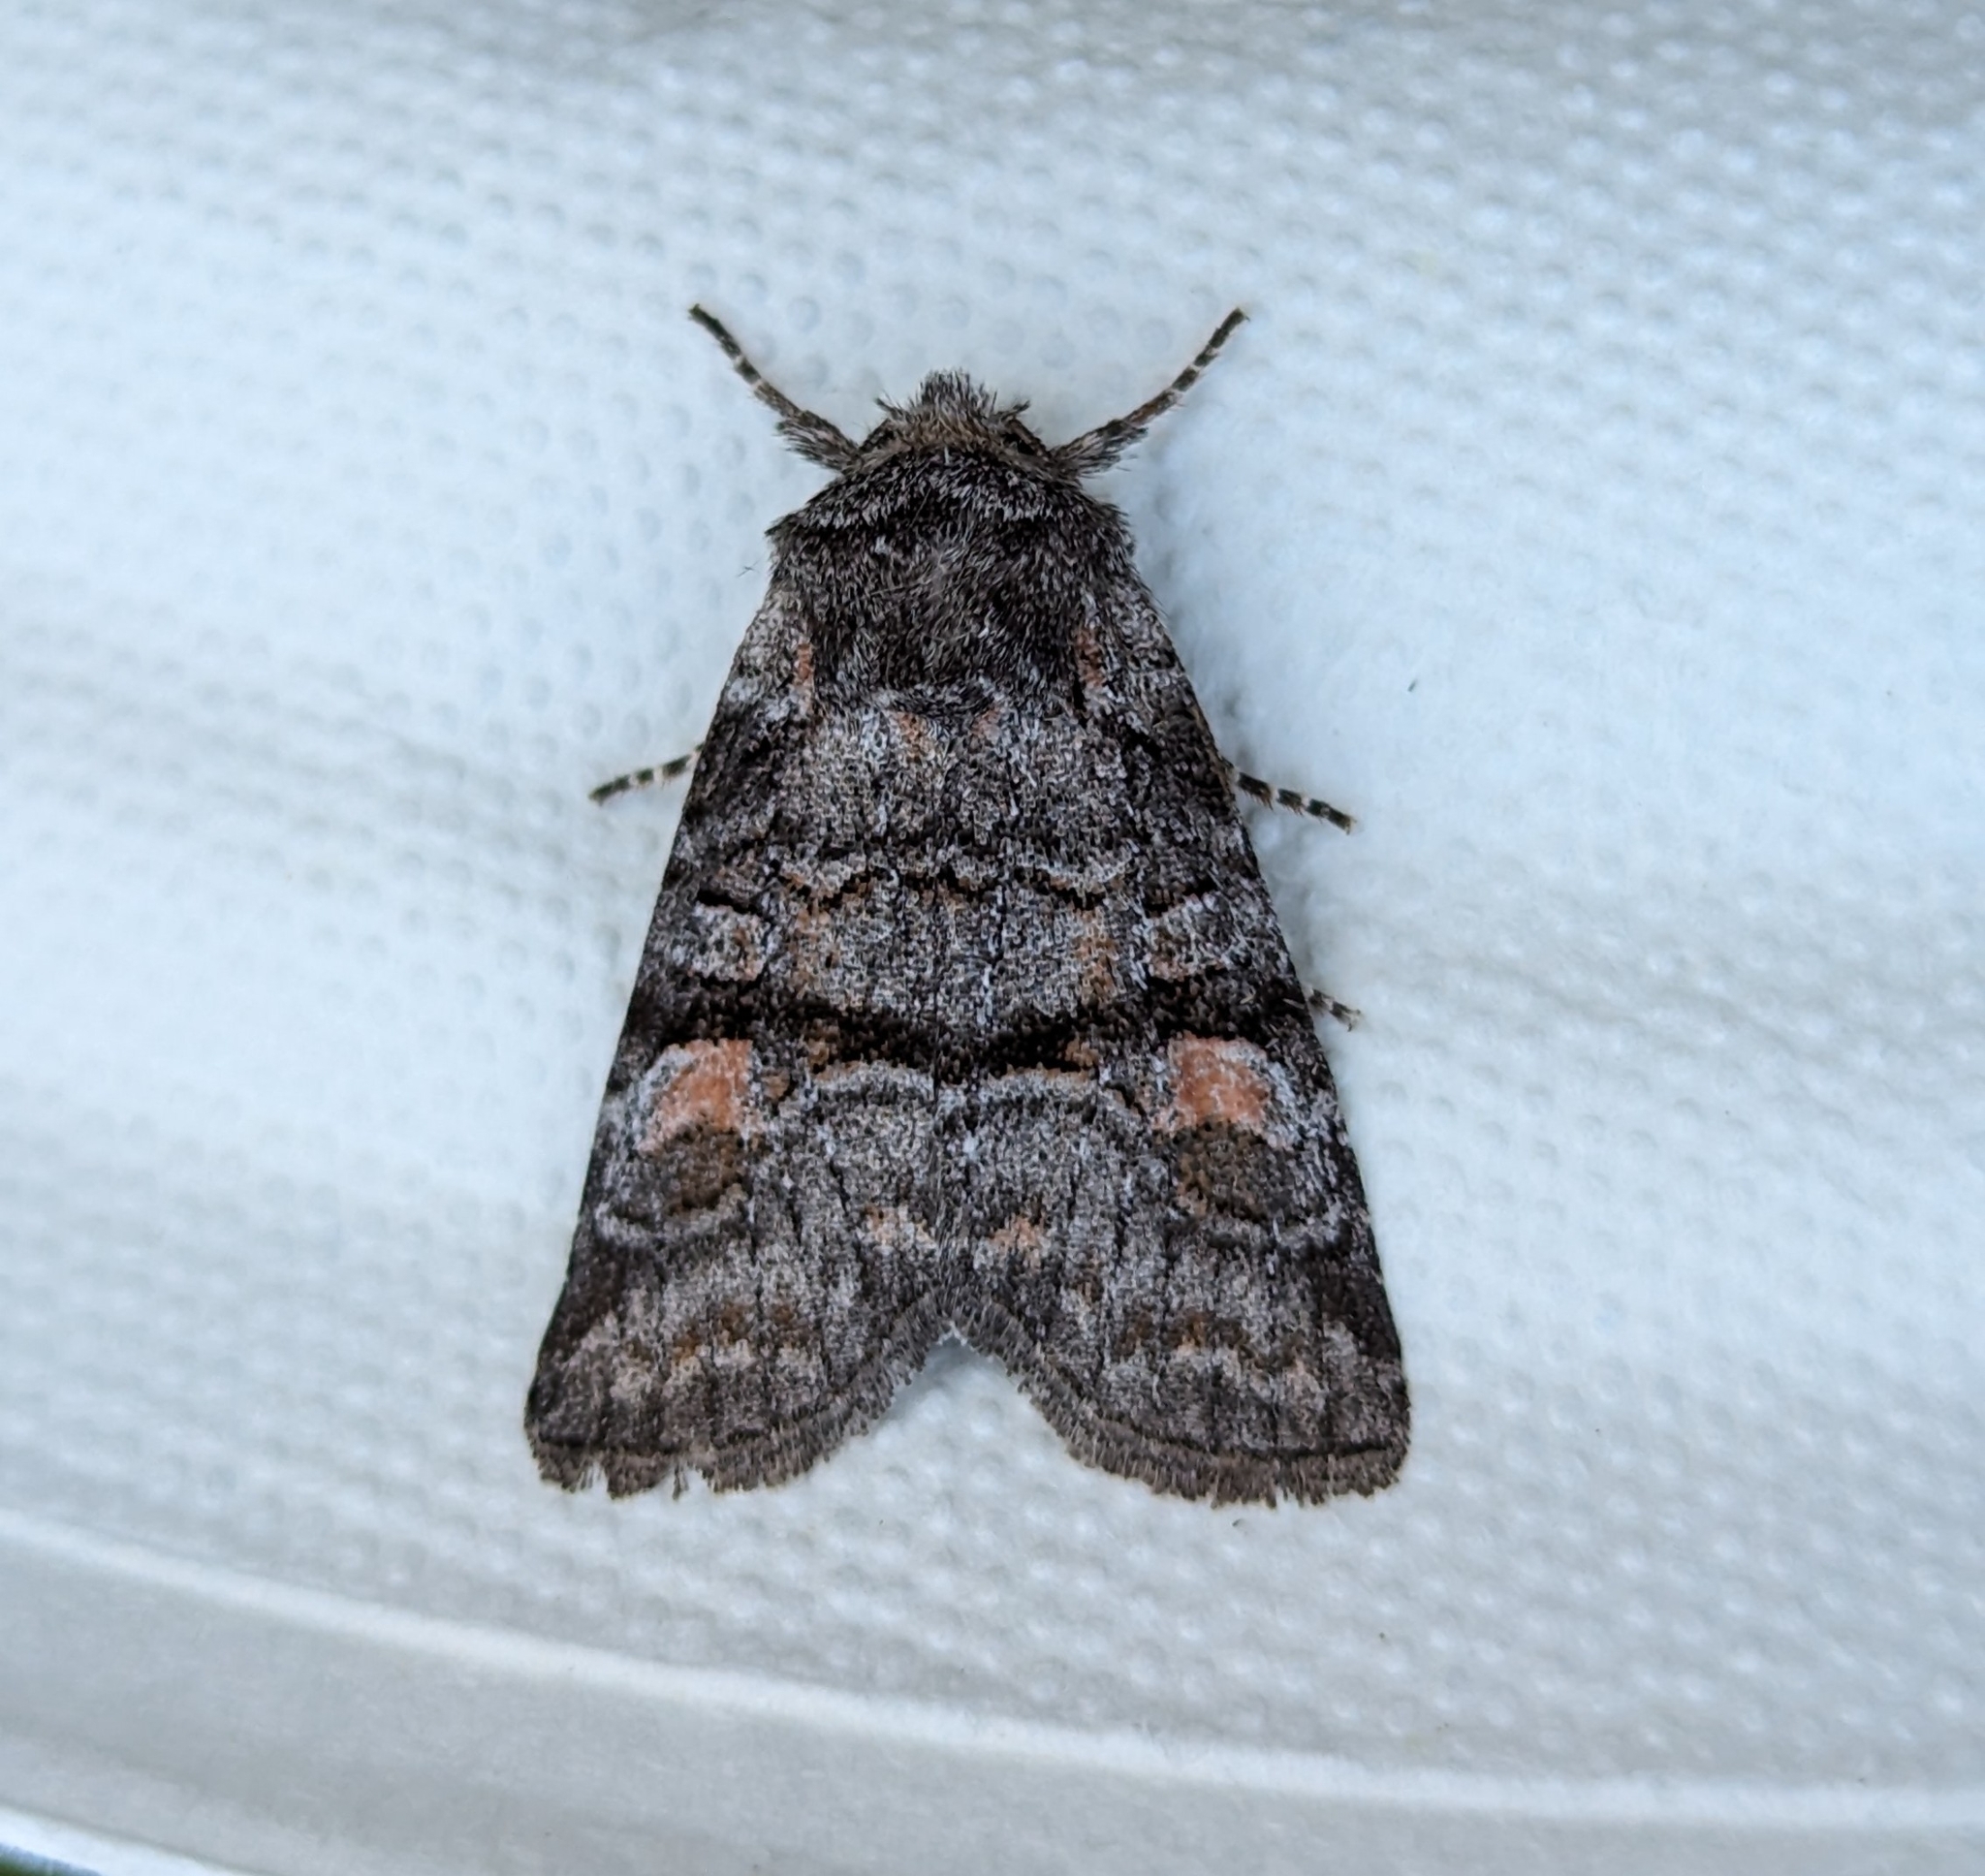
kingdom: Animalia
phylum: Arthropoda
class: Insecta
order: Lepidoptera
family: Noctuidae
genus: Brachylomia
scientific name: Brachylomia cascadia
